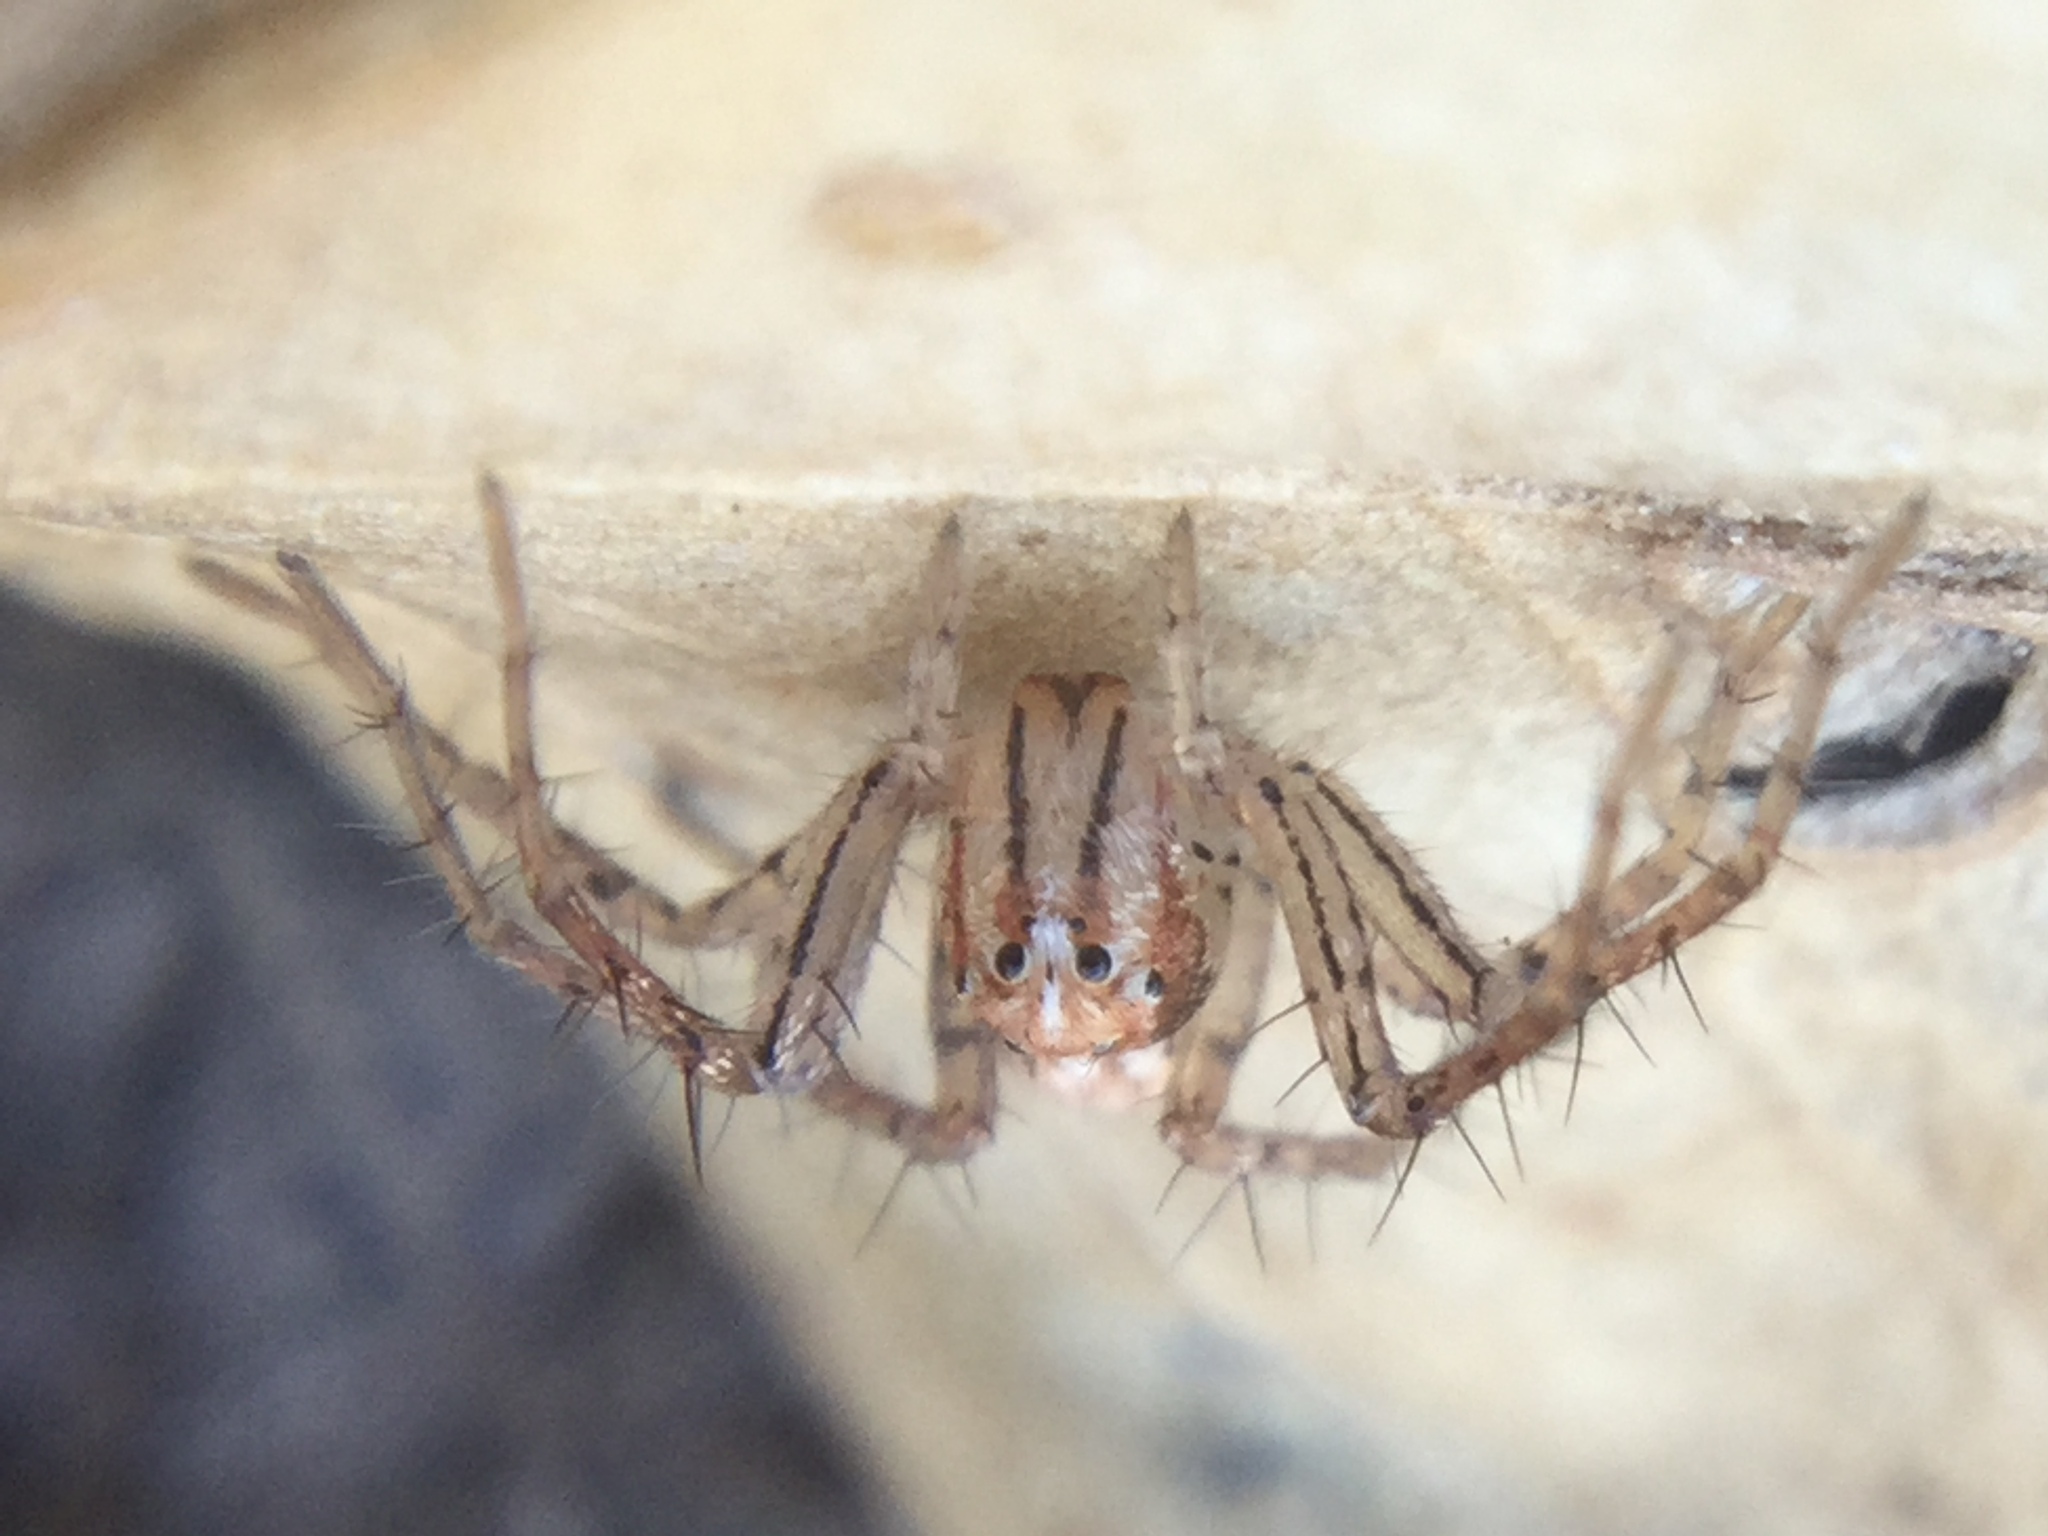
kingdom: Animalia
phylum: Arthropoda
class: Arachnida
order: Araneae
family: Oxyopidae
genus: Oxyopes
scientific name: Oxyopes aglossus
